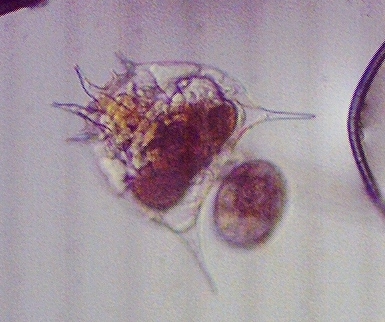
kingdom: Animalia
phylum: Rotifera
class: Eurotatoria
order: Ploima
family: Brachionidae
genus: Brachionus
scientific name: Brachionus quadridentatus
